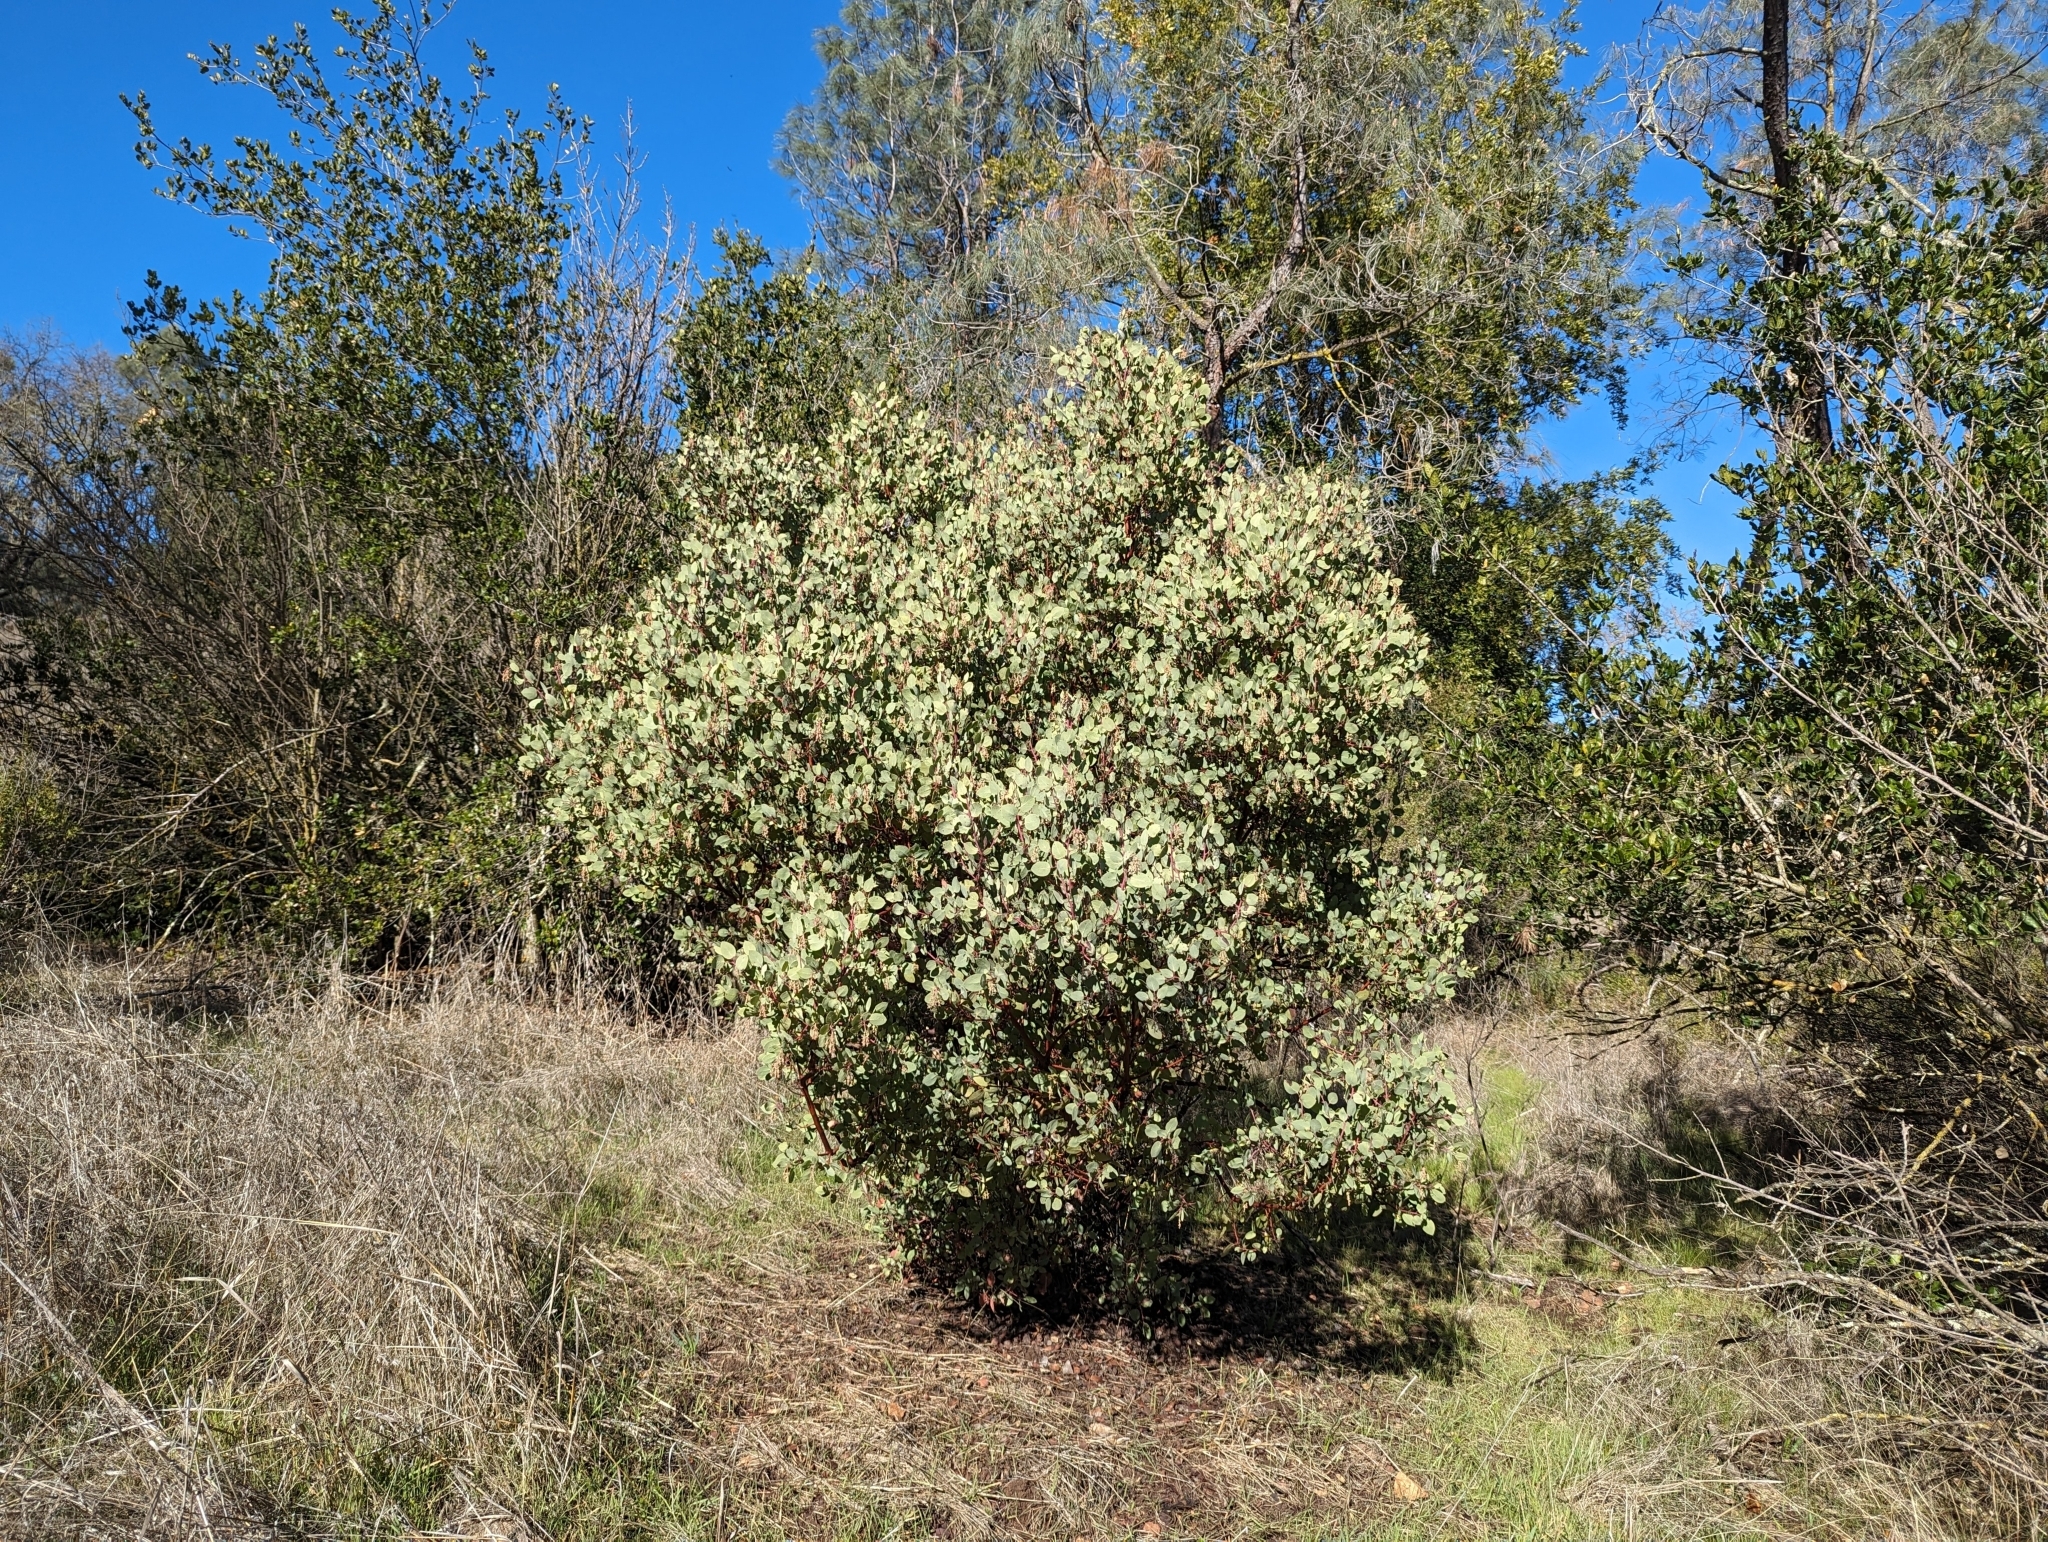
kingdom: Plantae
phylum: Tracheophyta
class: Magnoliopsida
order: Ericales
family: Ericaceae
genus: Arctostaphylos
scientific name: Arctostaphylos glauca
